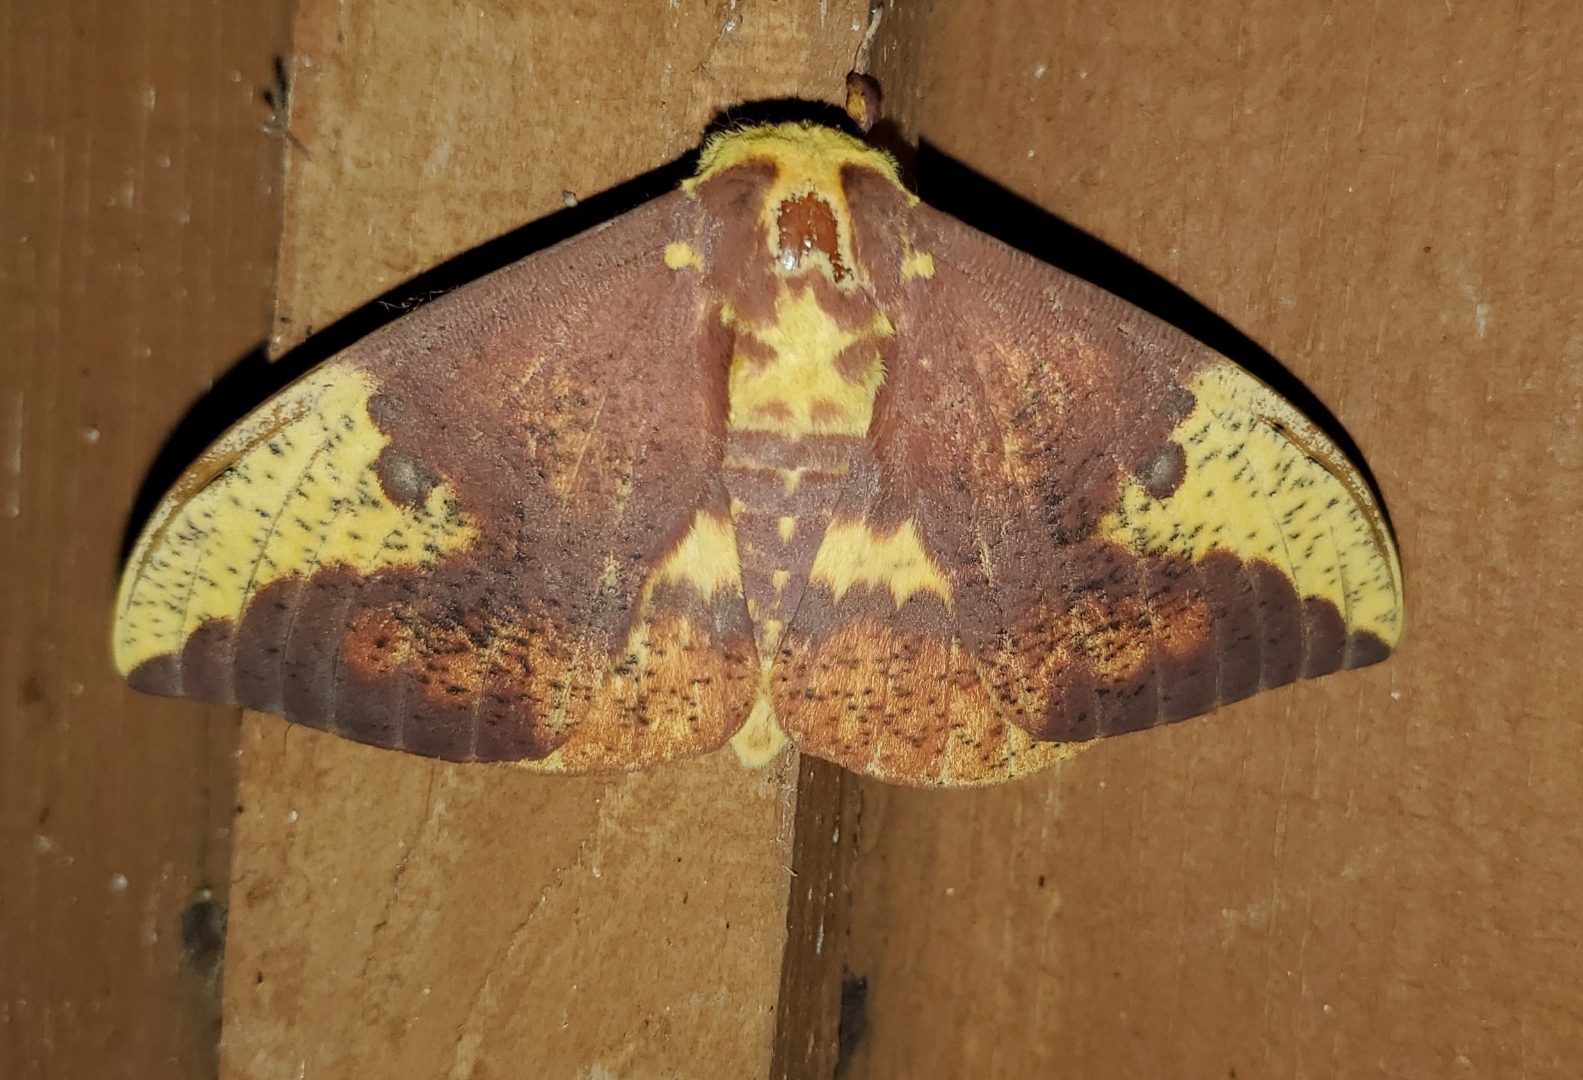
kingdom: Animalia
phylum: Arthropoda
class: Insecta
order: Lepidoptera
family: Saturniidae
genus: Eacles
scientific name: Eacles imperialis
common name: Imperial moth
